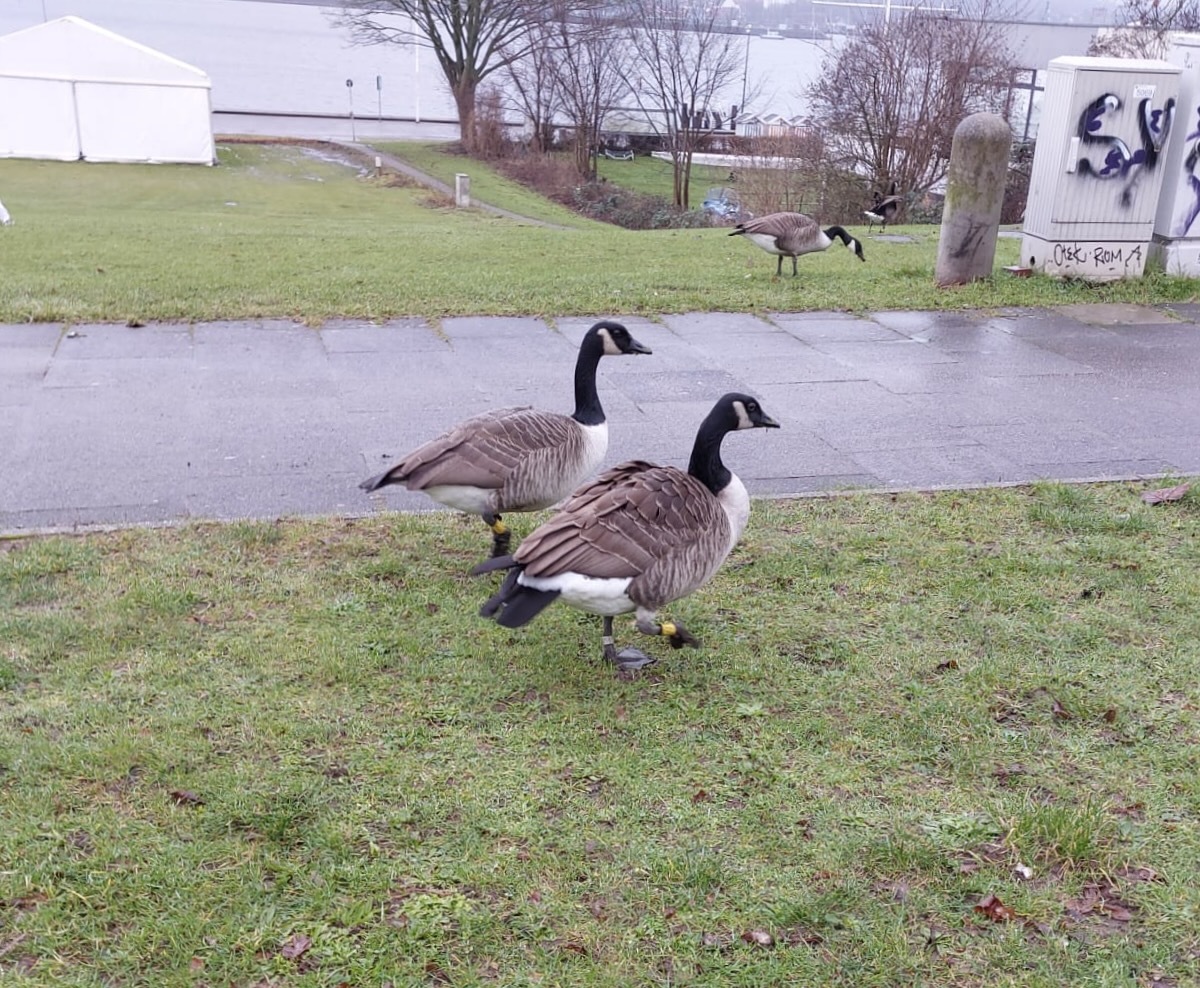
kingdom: Animalia
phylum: Chordata
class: Aves
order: Anseriformes
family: Anatidae
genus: Branta
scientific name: Branta canadensis
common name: Canada goose
